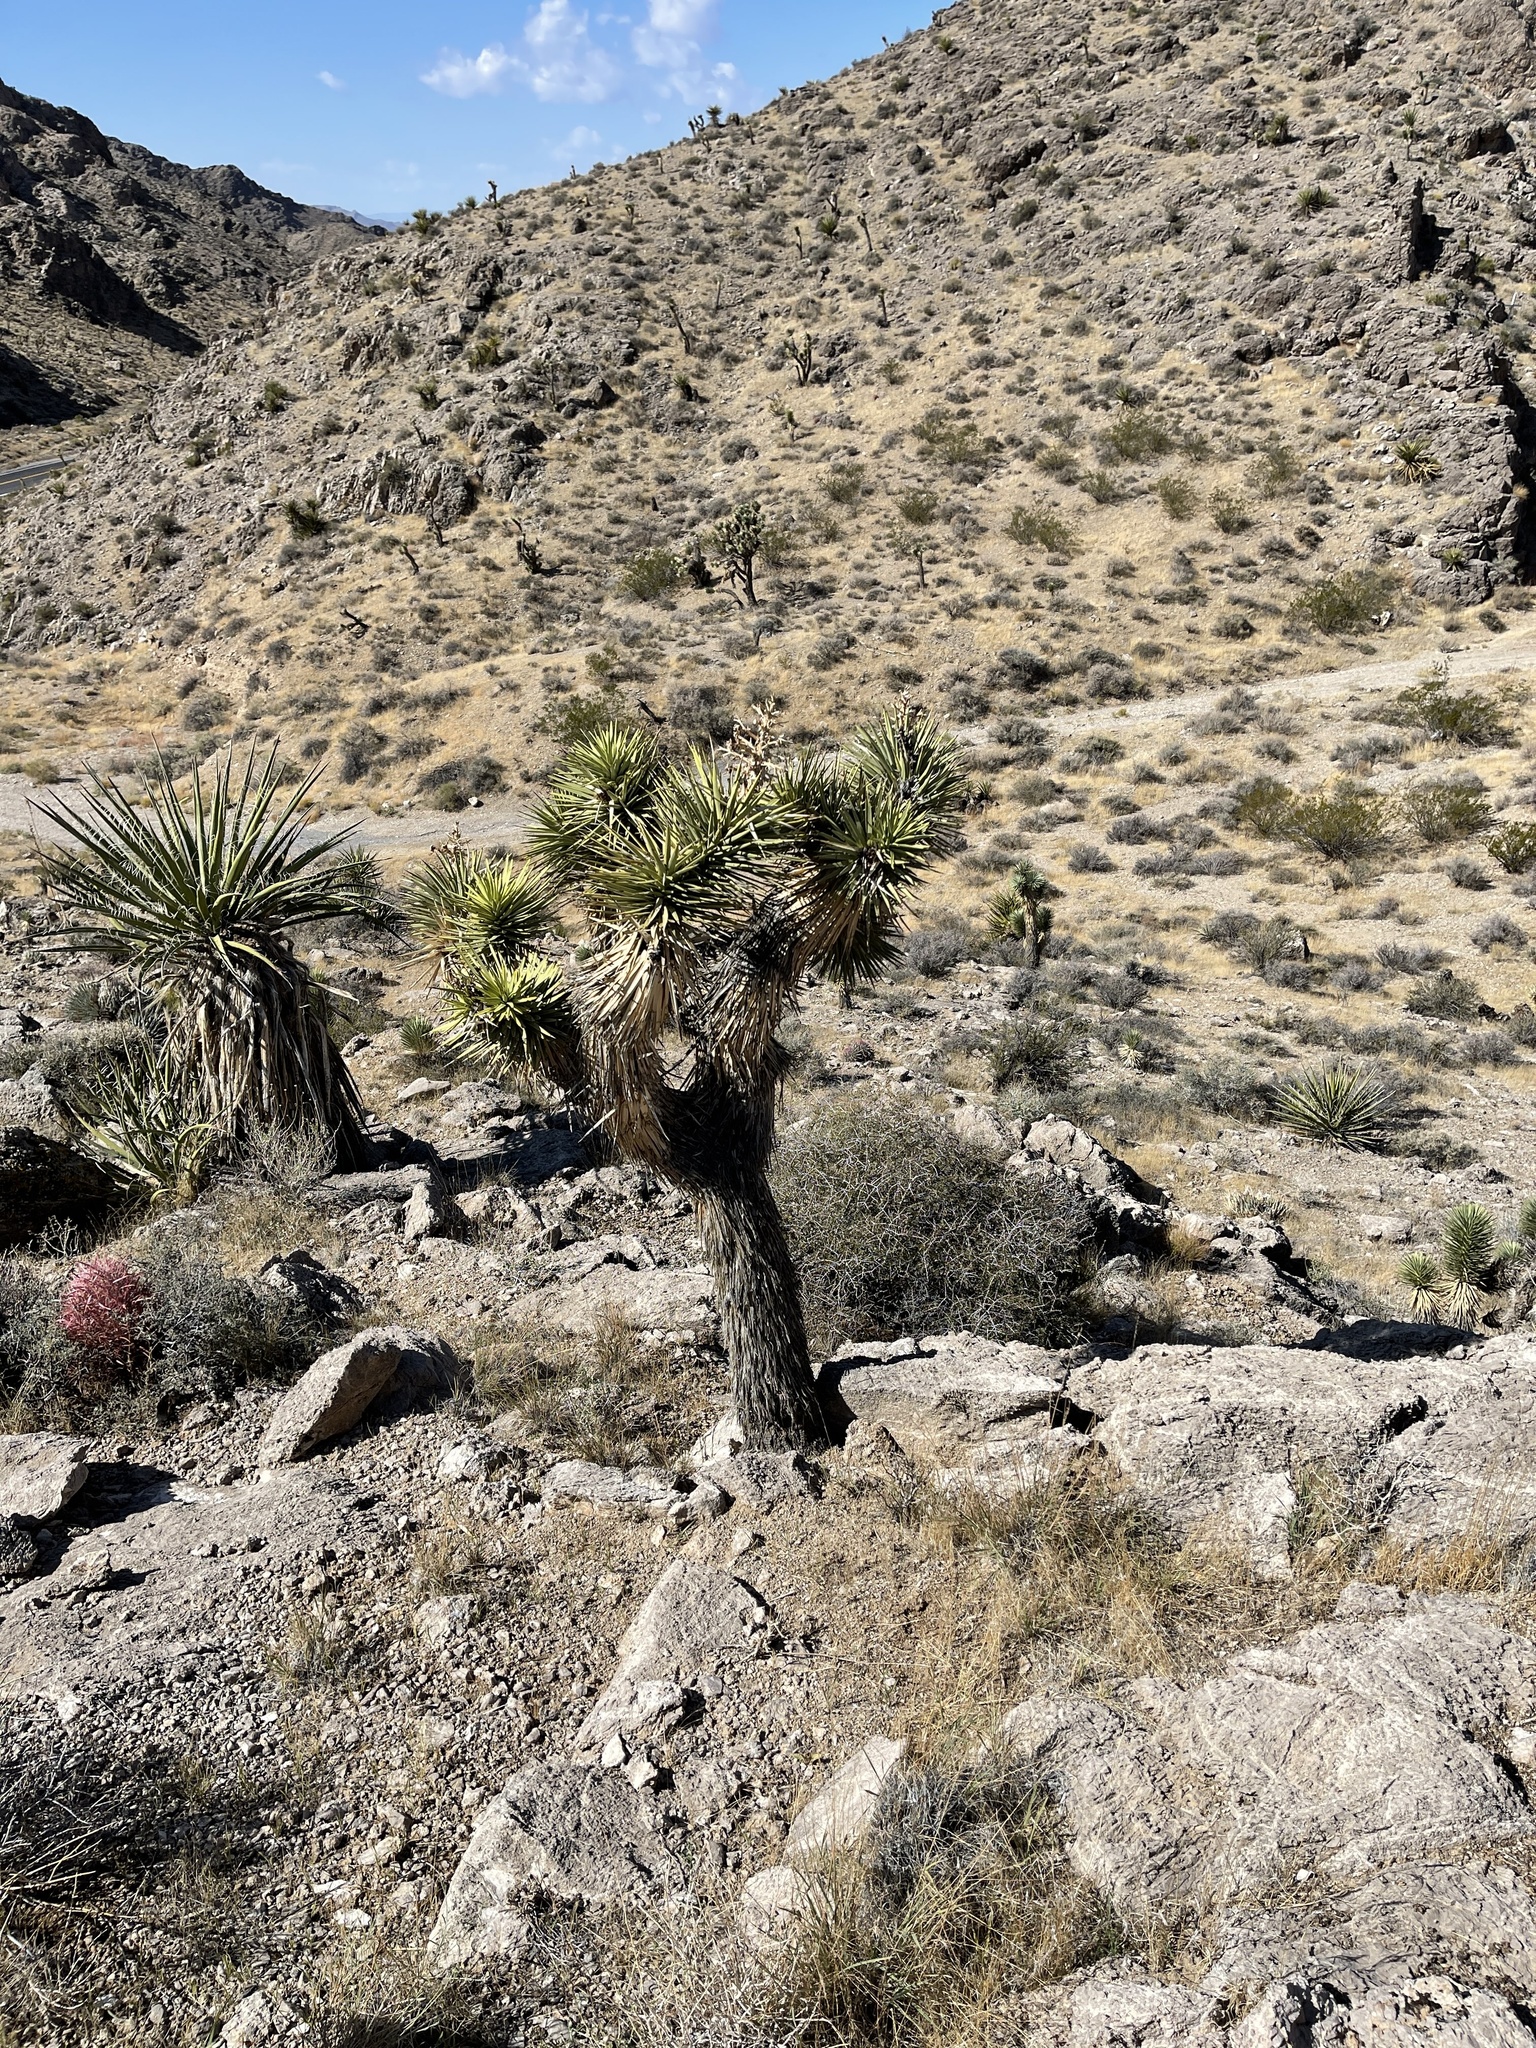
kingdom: Plantae
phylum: Tracheophyta
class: Liliopsida
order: Asparagales
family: Asparagaceae
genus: Yucca
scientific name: Yucca brevifolia
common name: Joshua tree
